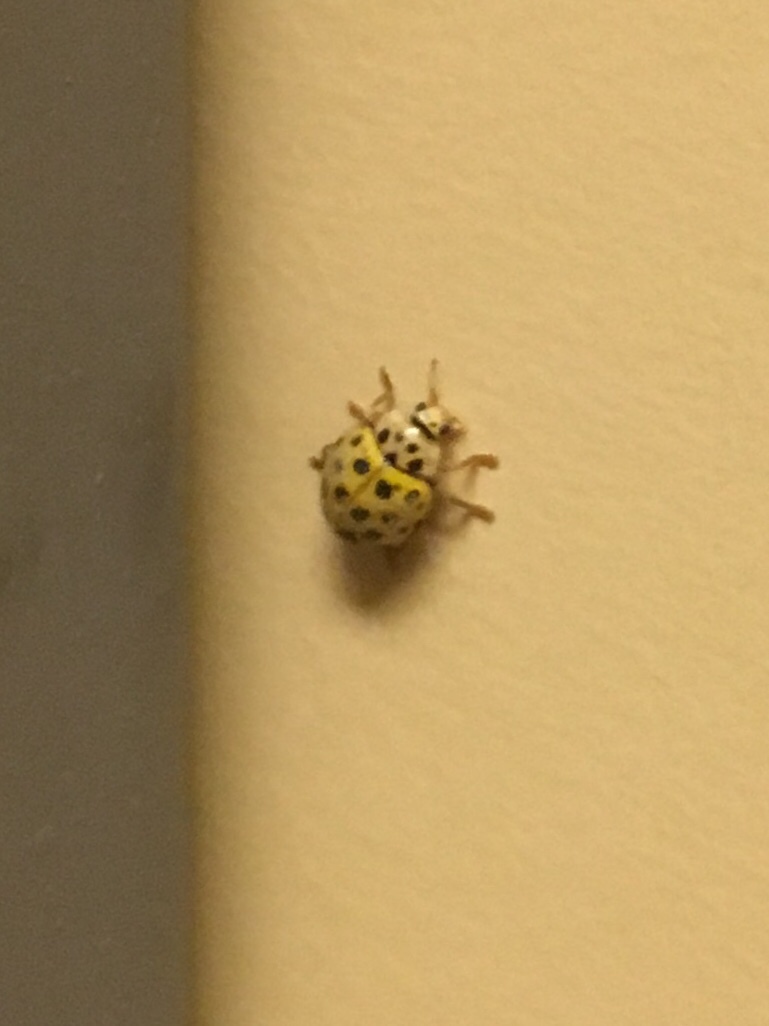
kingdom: Animalia
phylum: Arthropoda
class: Insecta
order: Coleoptera
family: Coccinellidae
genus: Psyllobora
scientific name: Psyllobora vigintiduopunctata
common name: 22-spot ladybird
